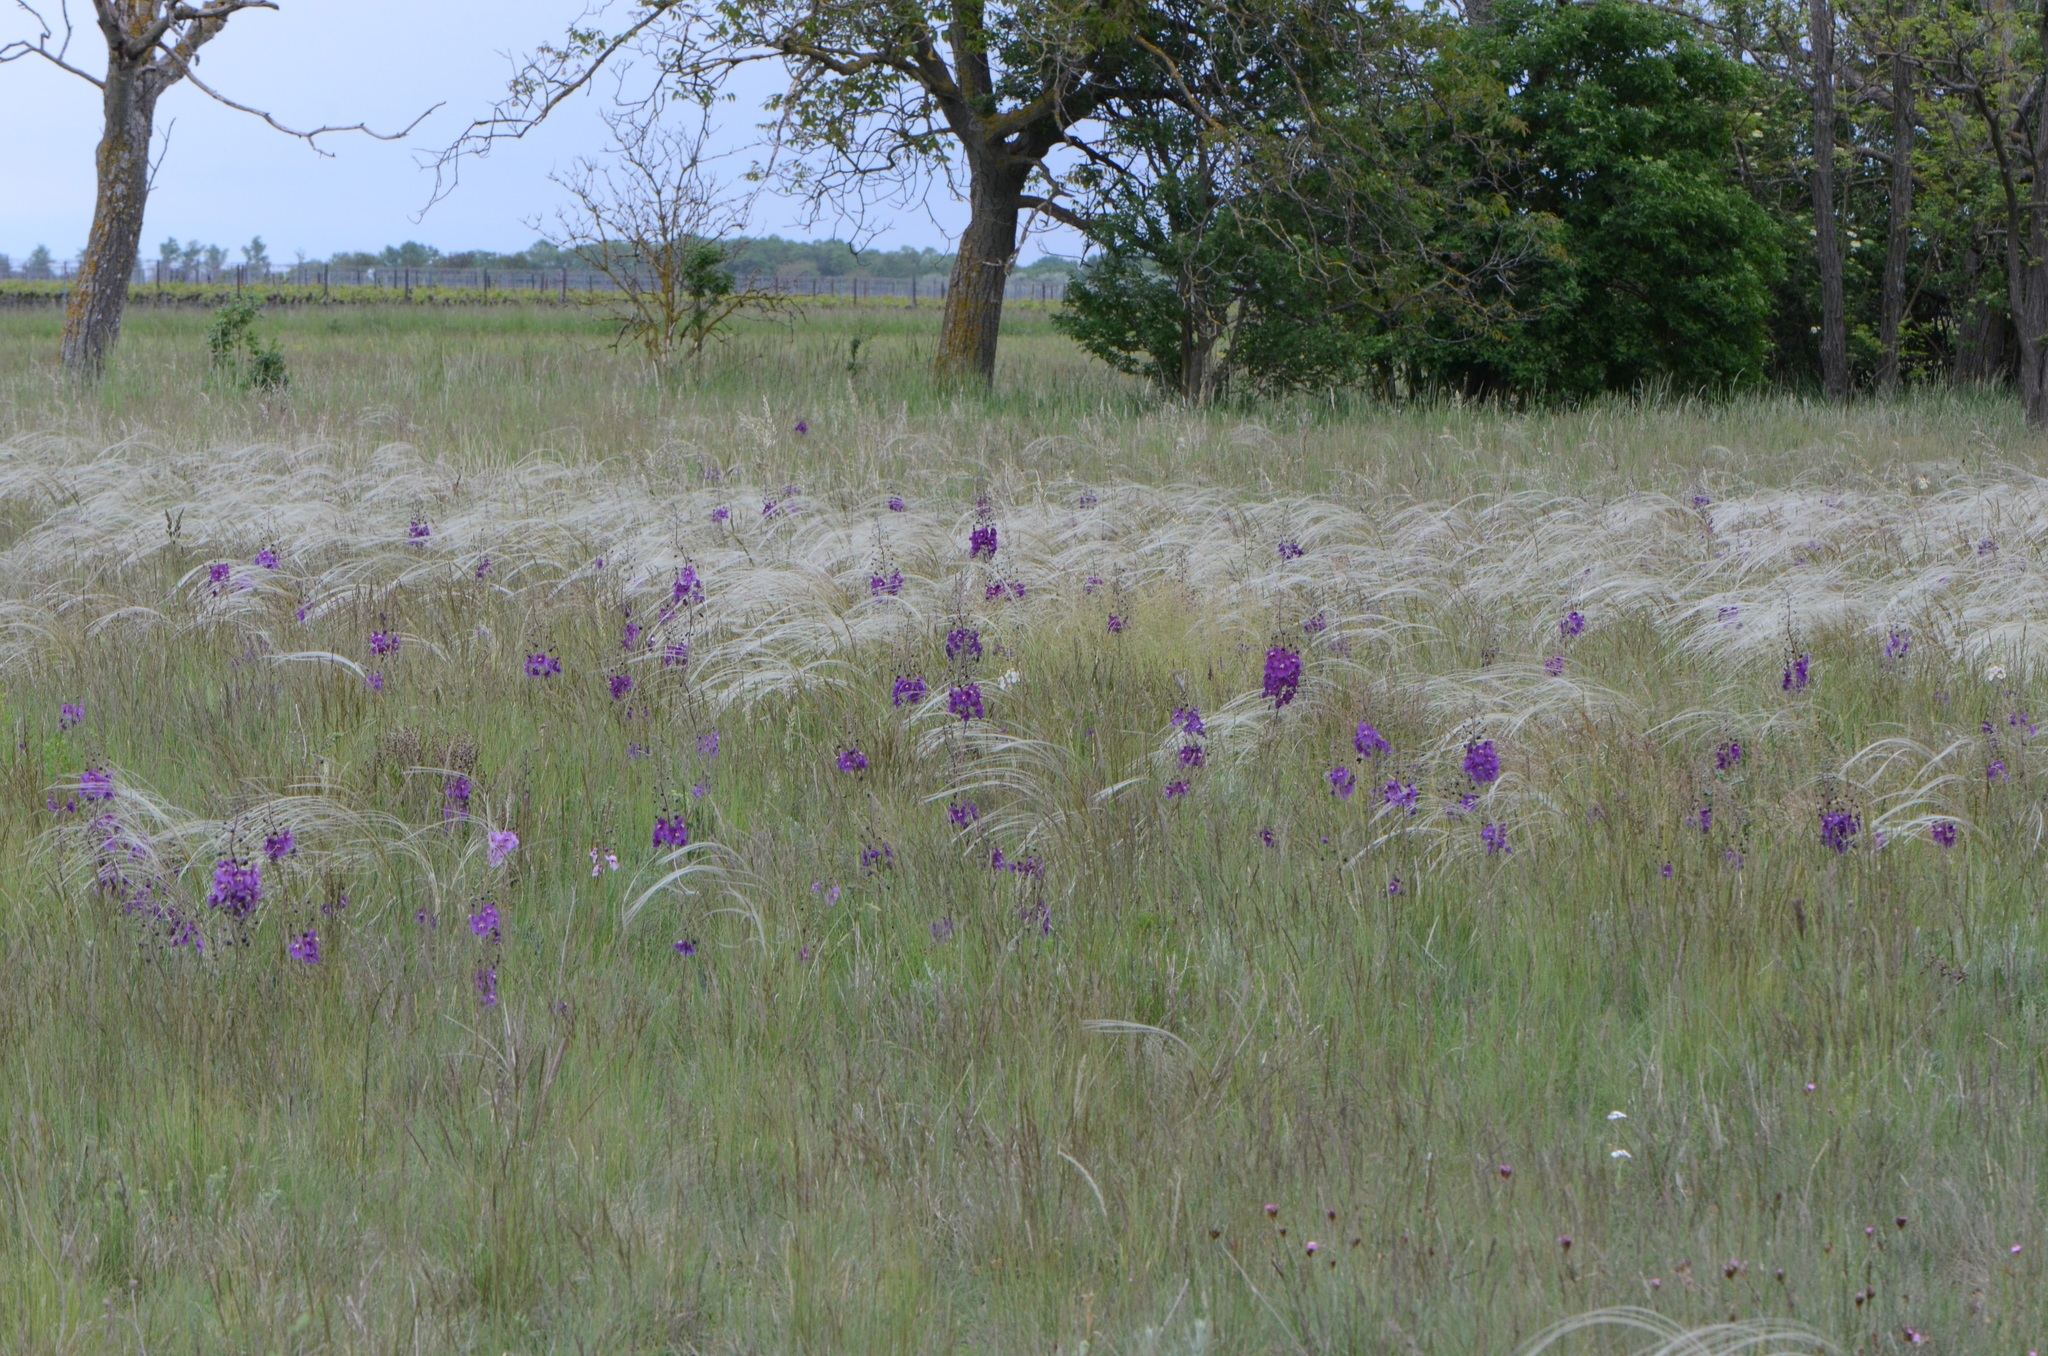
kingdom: Plantae
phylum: Tracheophyta
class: Magnoliopsida
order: Lamiales
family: Scrophulariaceae
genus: Verbascum
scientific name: Verbascum phoeniceum
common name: Purple mullein
